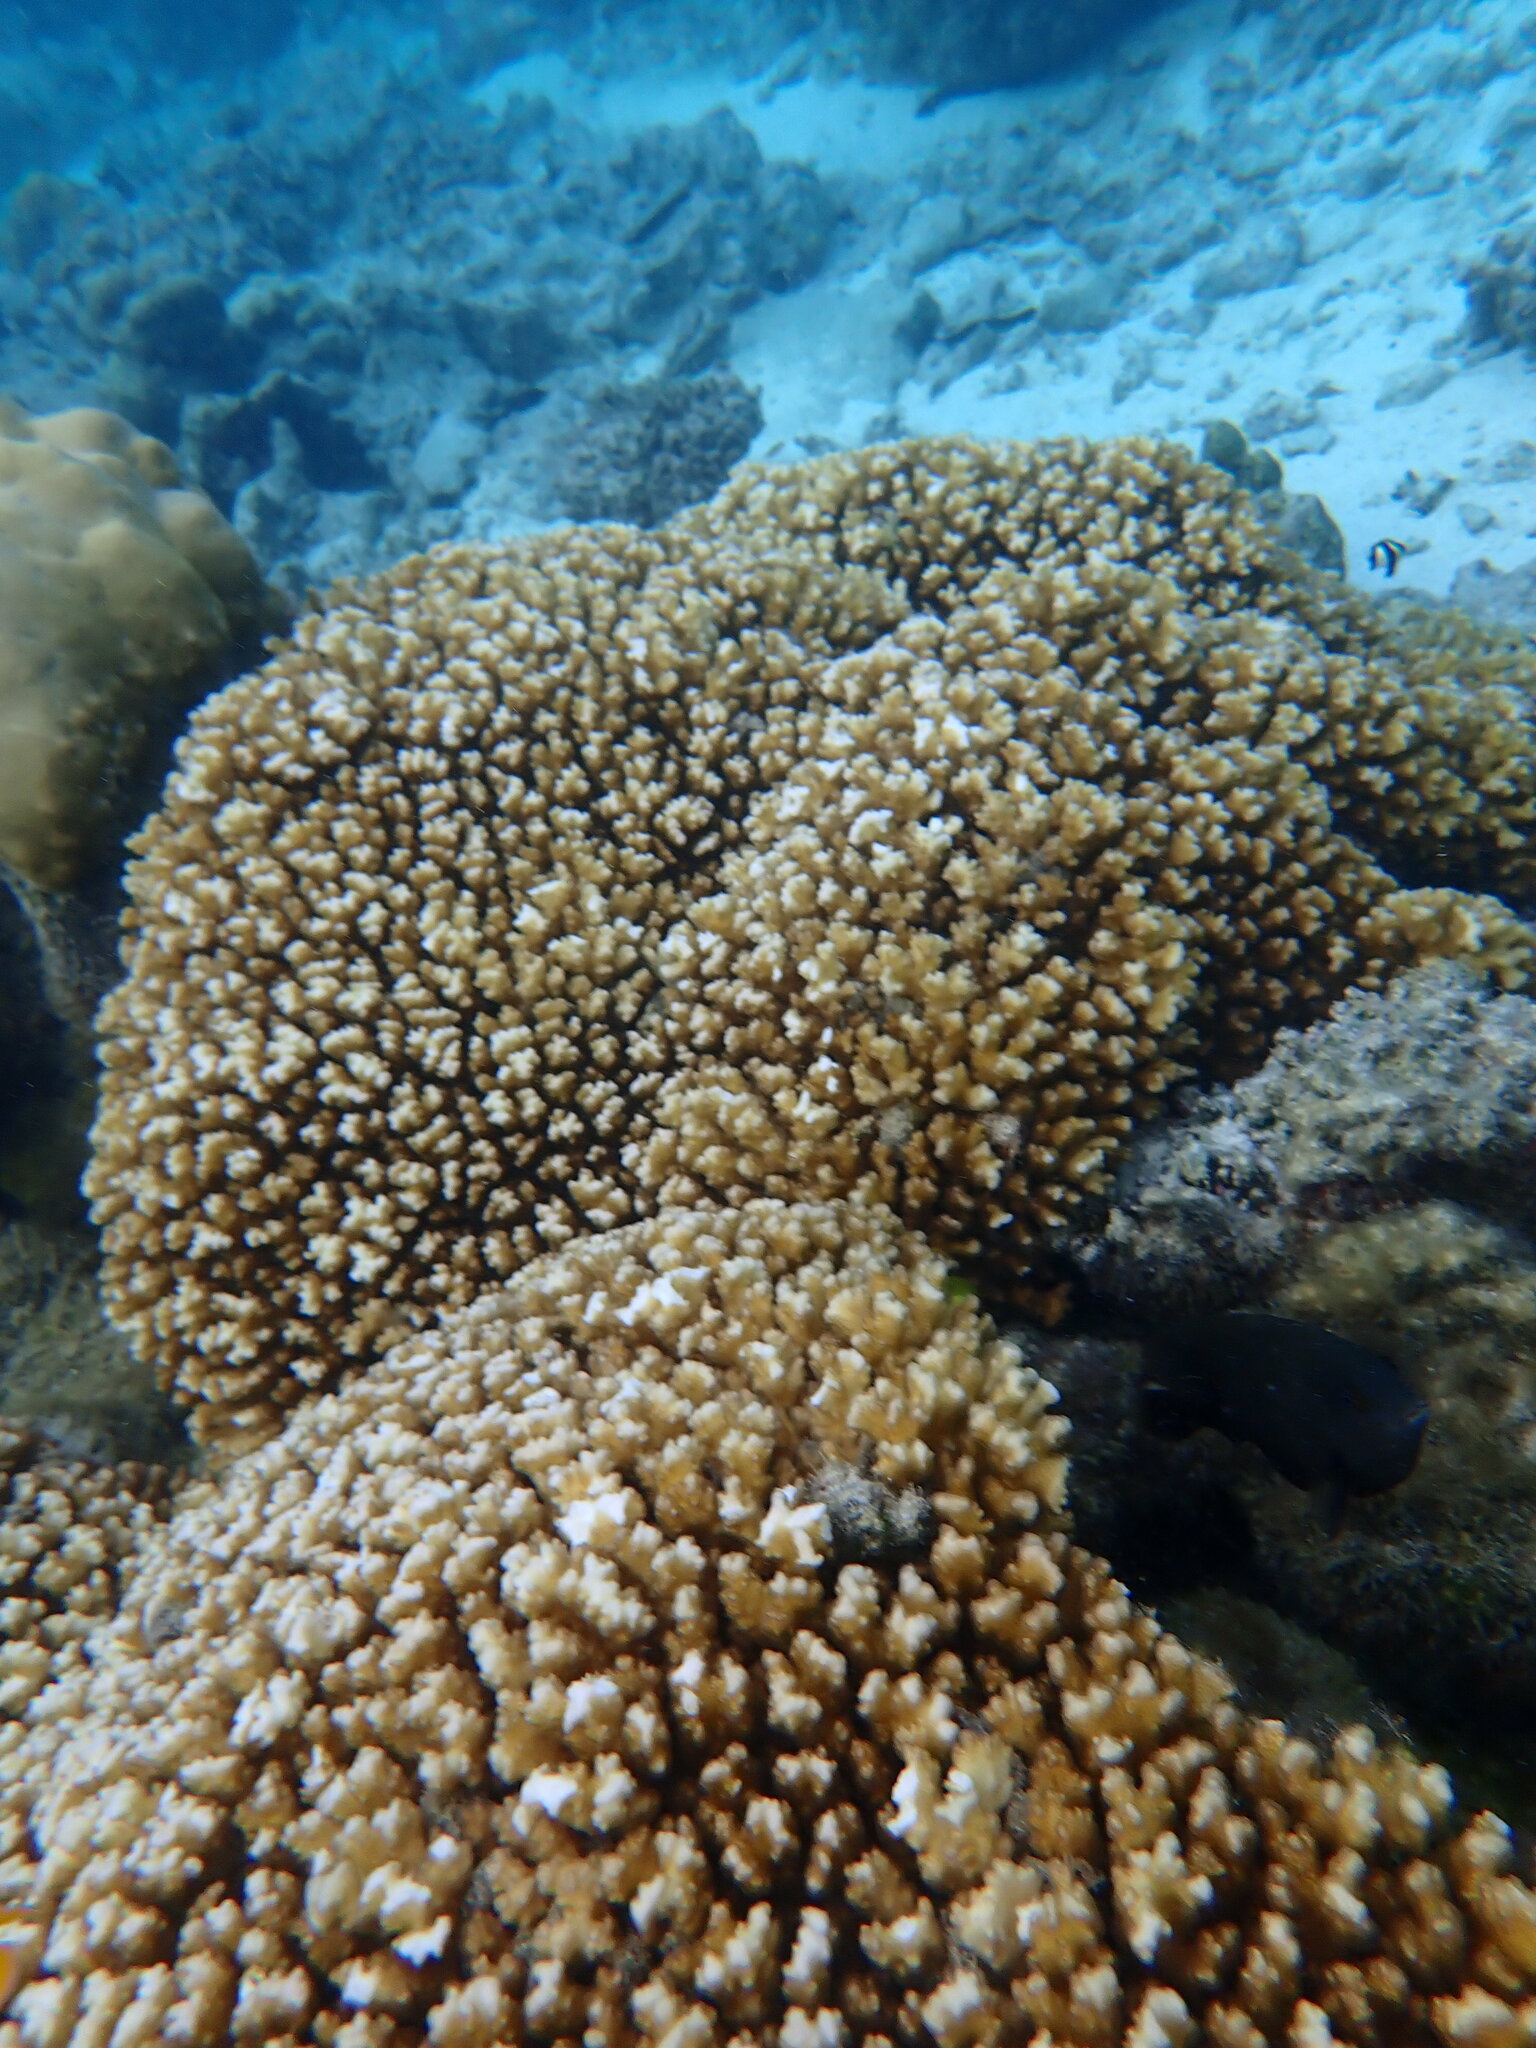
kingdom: Animalia
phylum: Cnidaria
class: Anthozoa
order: Scleractinia
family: Pocilloporidae
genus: Pocillopora
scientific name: Pocillopora damicornis
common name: Cauliflower coral
